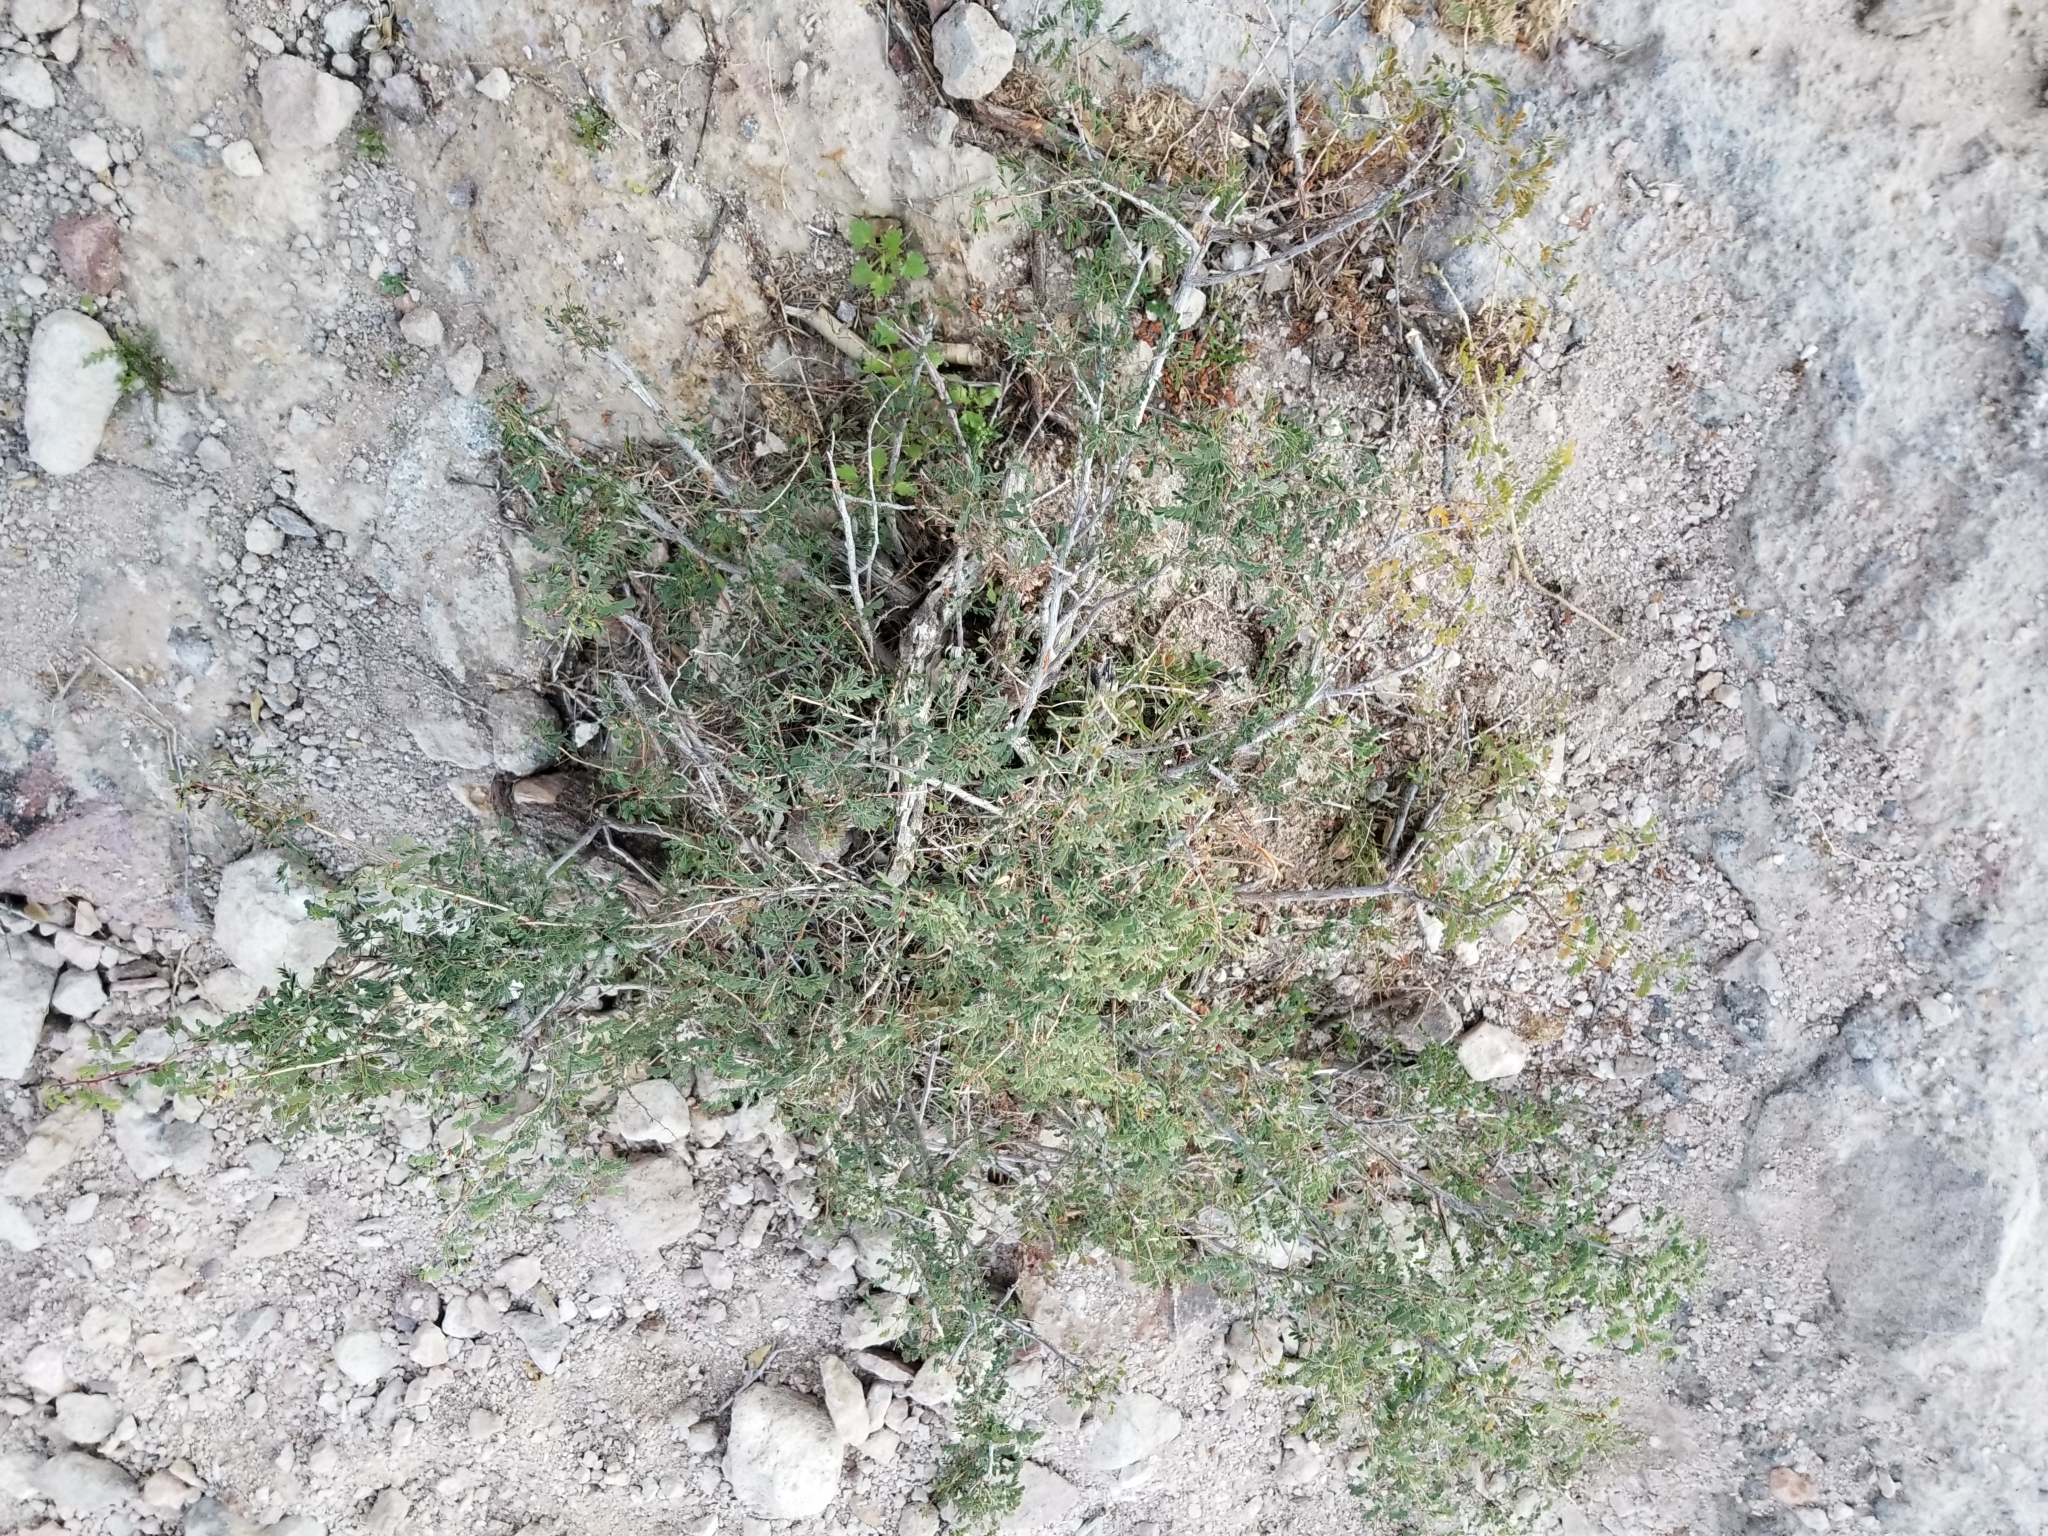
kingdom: Plantae
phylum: Tracheophyta
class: Magnoliopsida
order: Fabales
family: Fabaceae
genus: Senegalia
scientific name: Senegalia greggii
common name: Texas-mimosa
